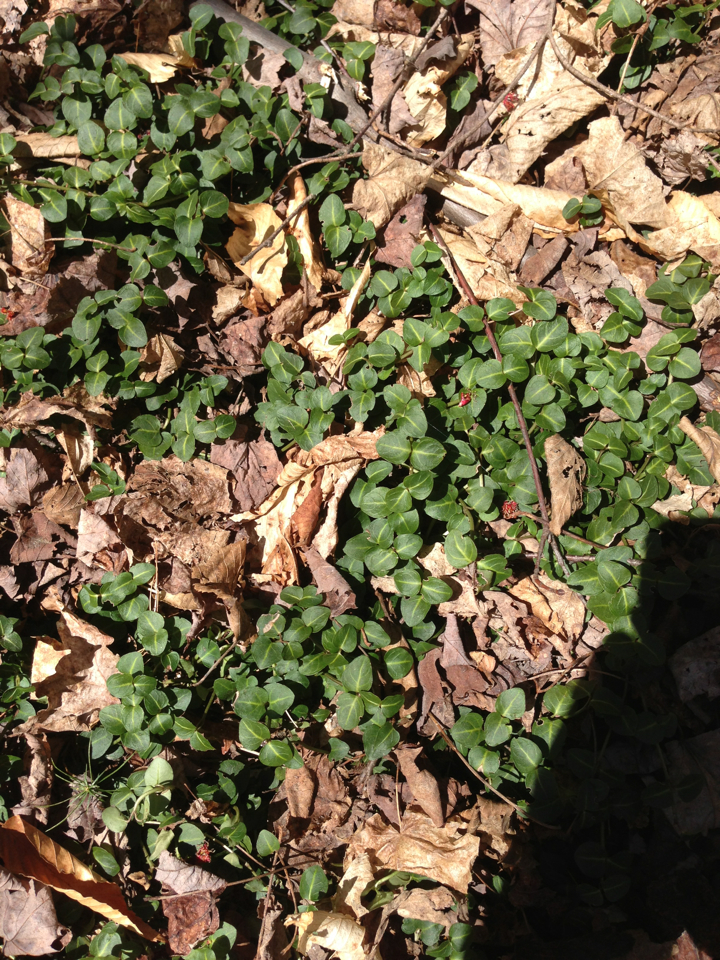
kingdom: Plantae
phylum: Tracheophyta
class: Magnoliopsida
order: Gentianales
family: Rubiaceae
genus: Mitchella
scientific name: Mitchella repens
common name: Partridge-berry
